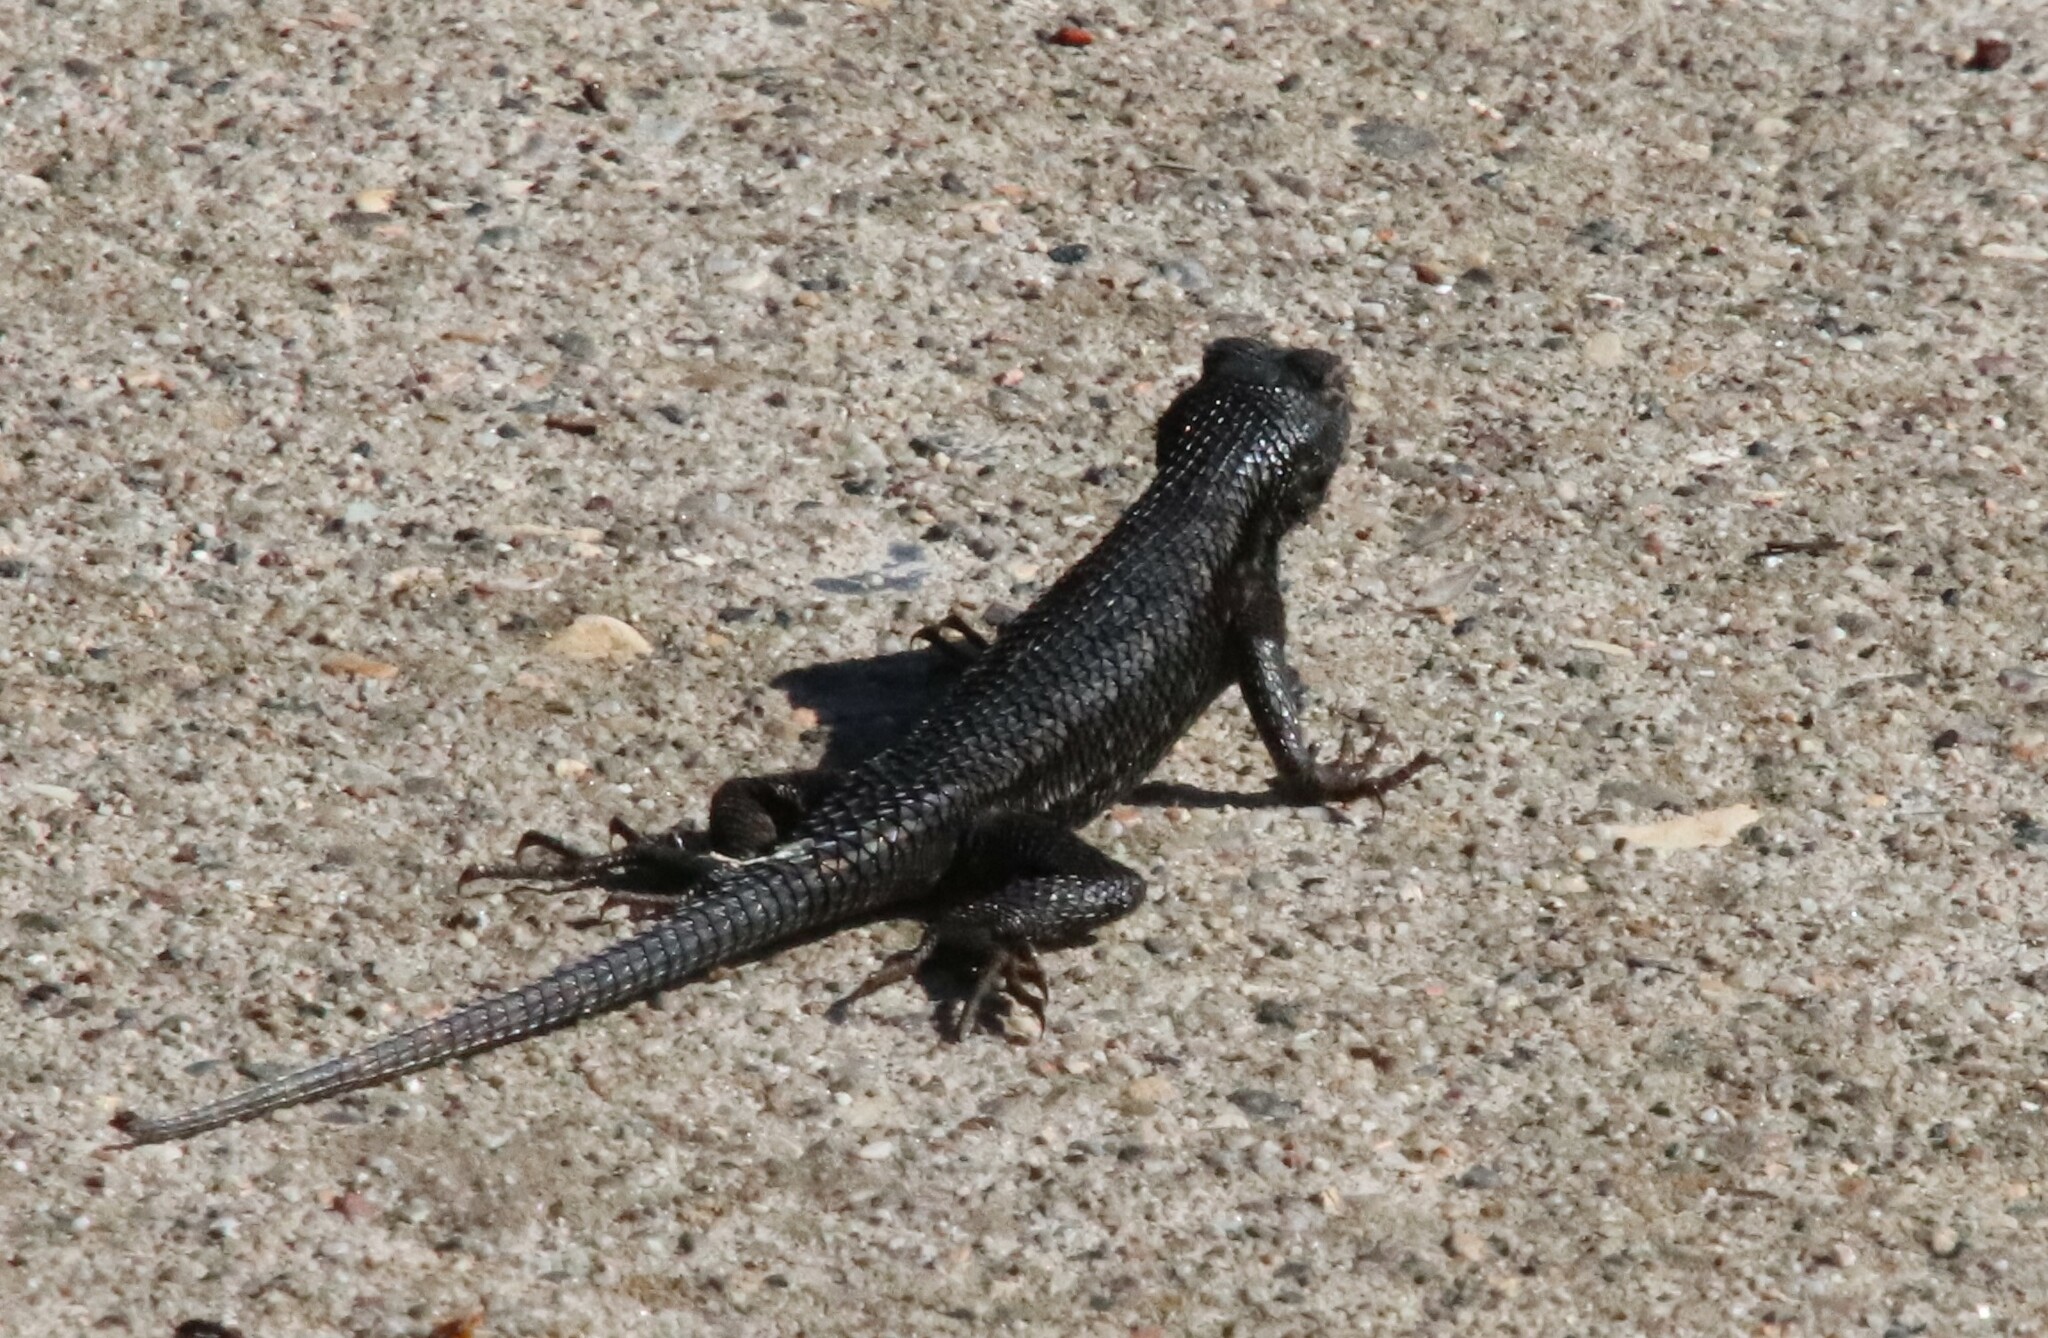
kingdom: Animalia
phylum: Chordata
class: Squamata
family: Phrynosomatidae
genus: Sceloporus
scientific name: Sceloporus occidentalis
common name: Western fence lizard
